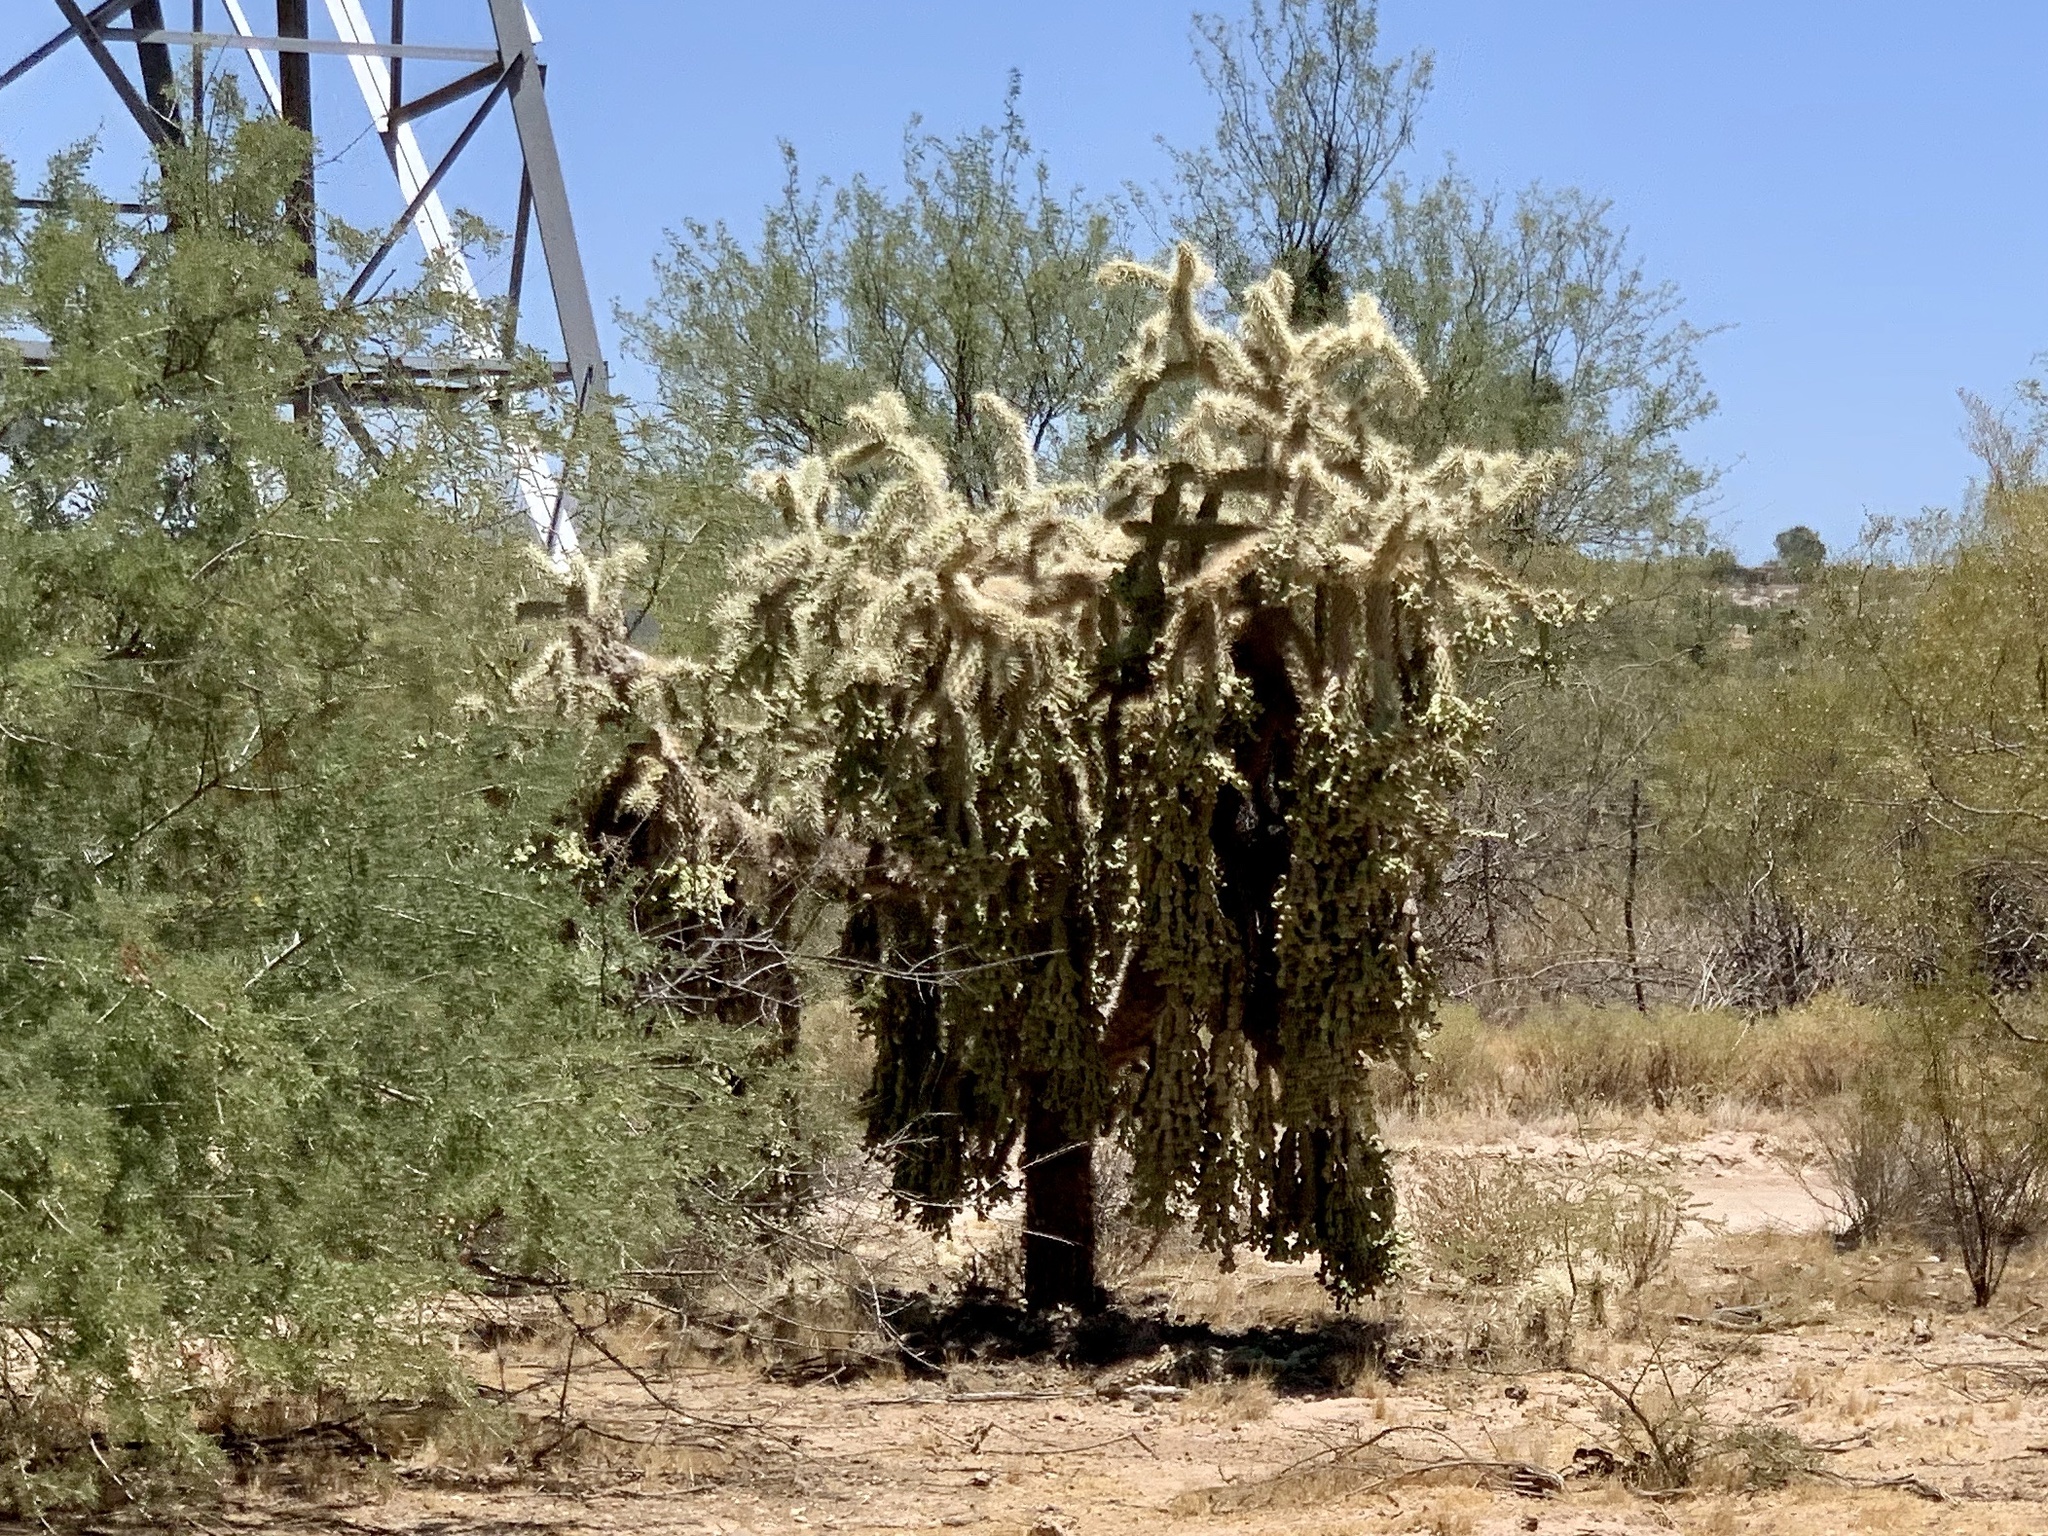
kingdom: Plantae
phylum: Tracheophyta
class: Magnoliopsida
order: Caryophyllales
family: Cactaceae
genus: Cylindropuntia
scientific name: Cylindropuntia fulgida
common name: Jumping cholla
